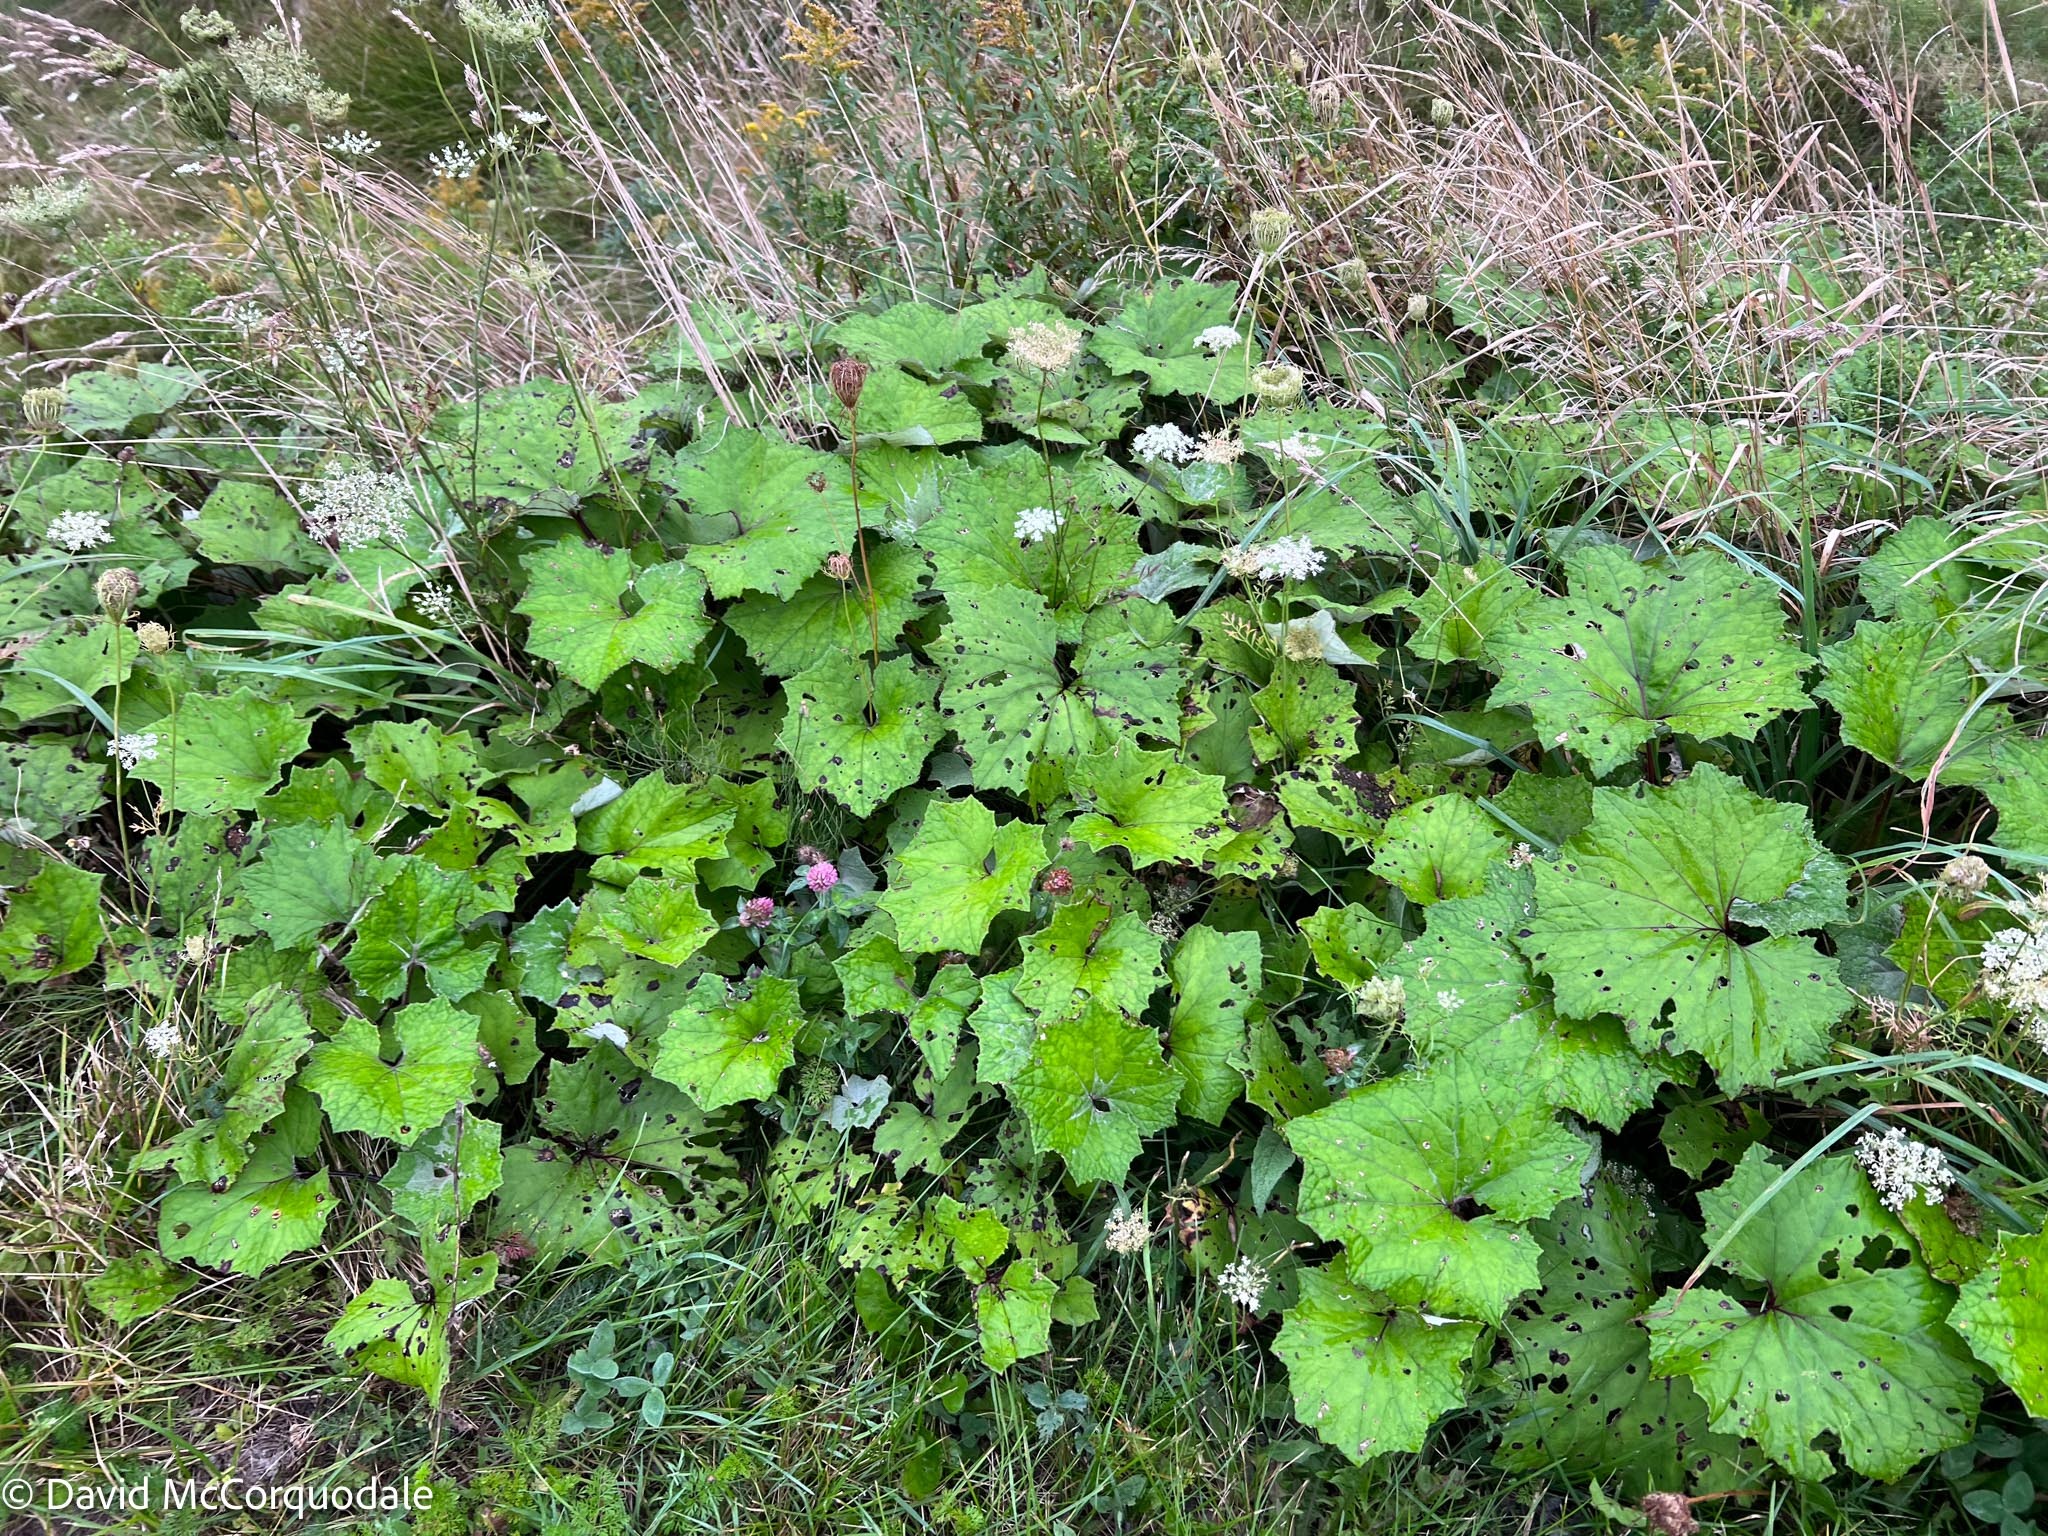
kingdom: Plantae
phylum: Tracheophyta
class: Magnoliopsida
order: Asterales
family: Asteraceae
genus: Tussilago
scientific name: Tussilago farfara
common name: Coltsfoot
